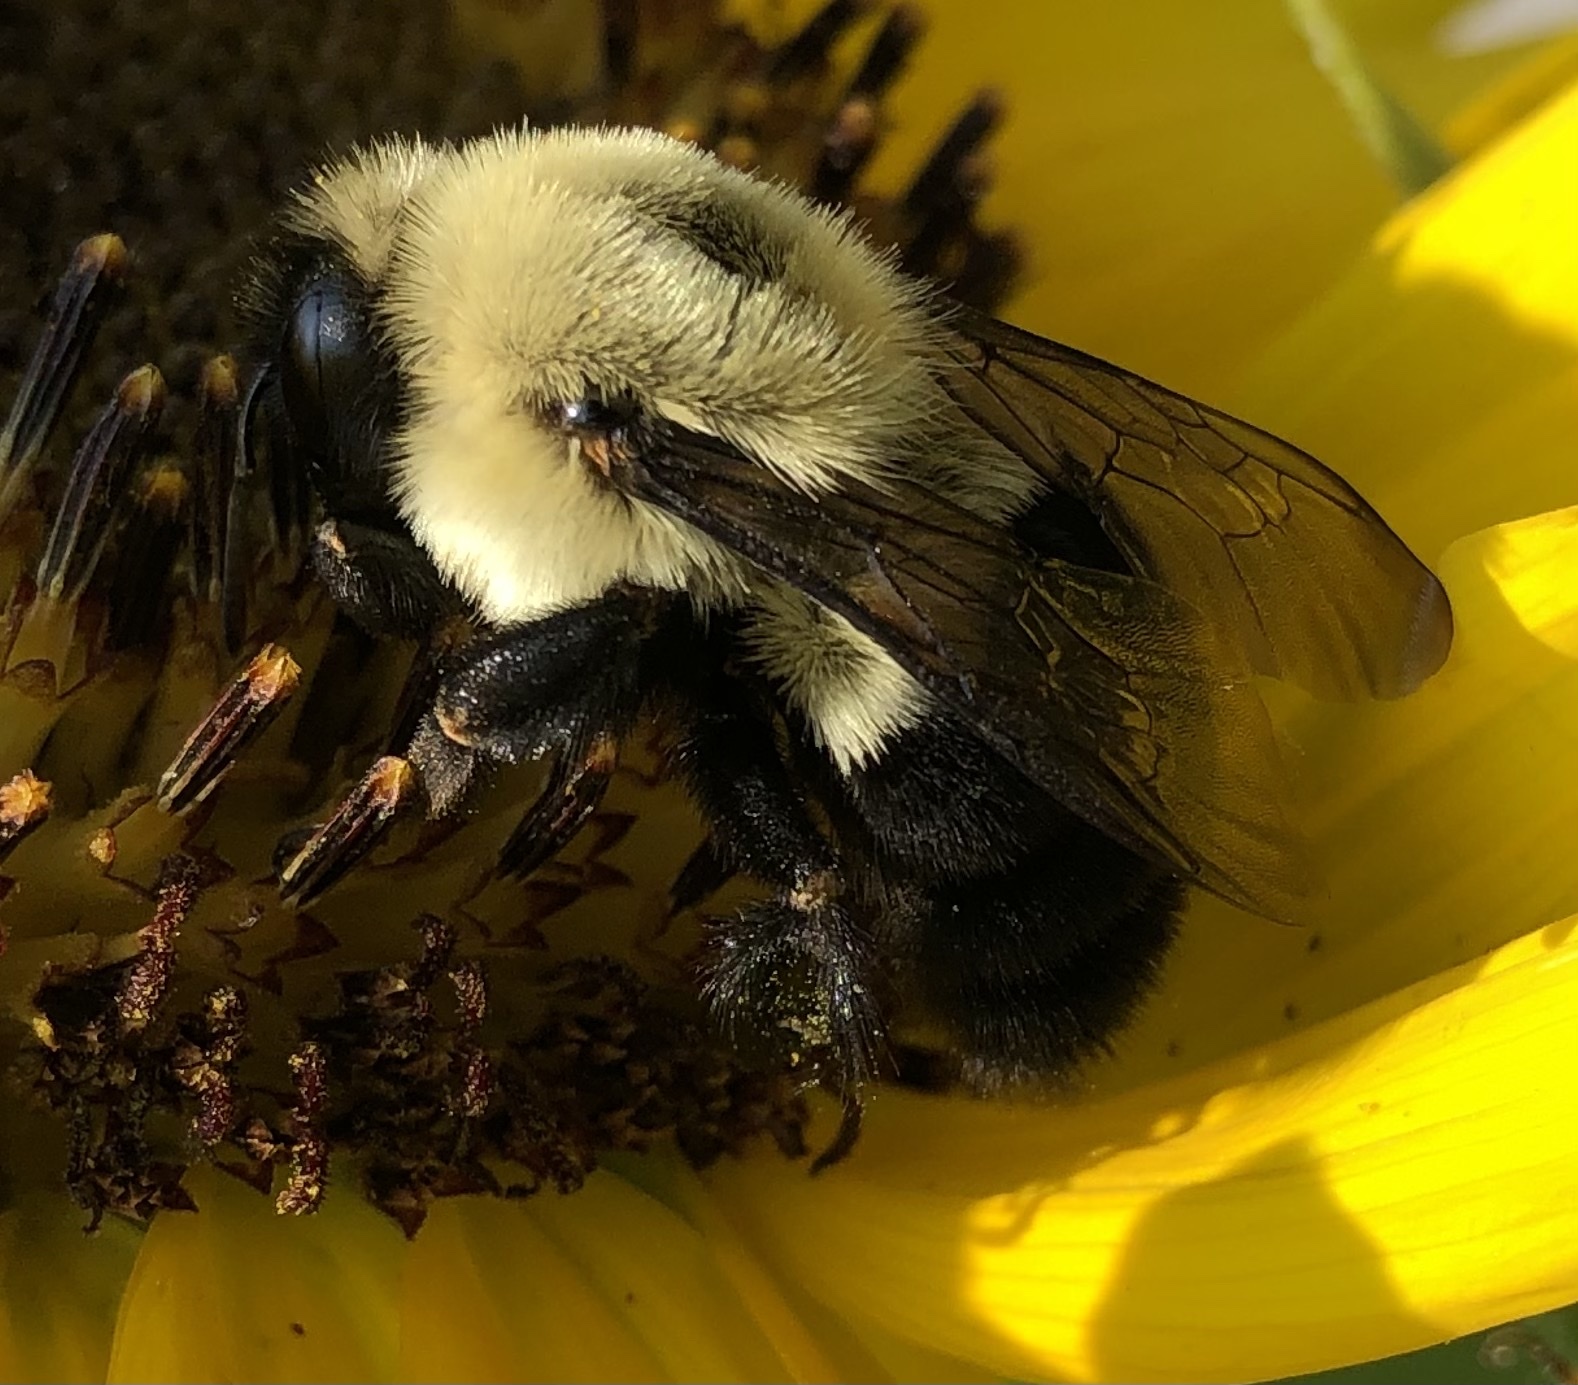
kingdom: Animalia
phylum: Arthropoda
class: Insecta
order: Hymenoptera
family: Apidae
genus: Bombus
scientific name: Bombus impatiens
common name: Common eastern bumble bee
